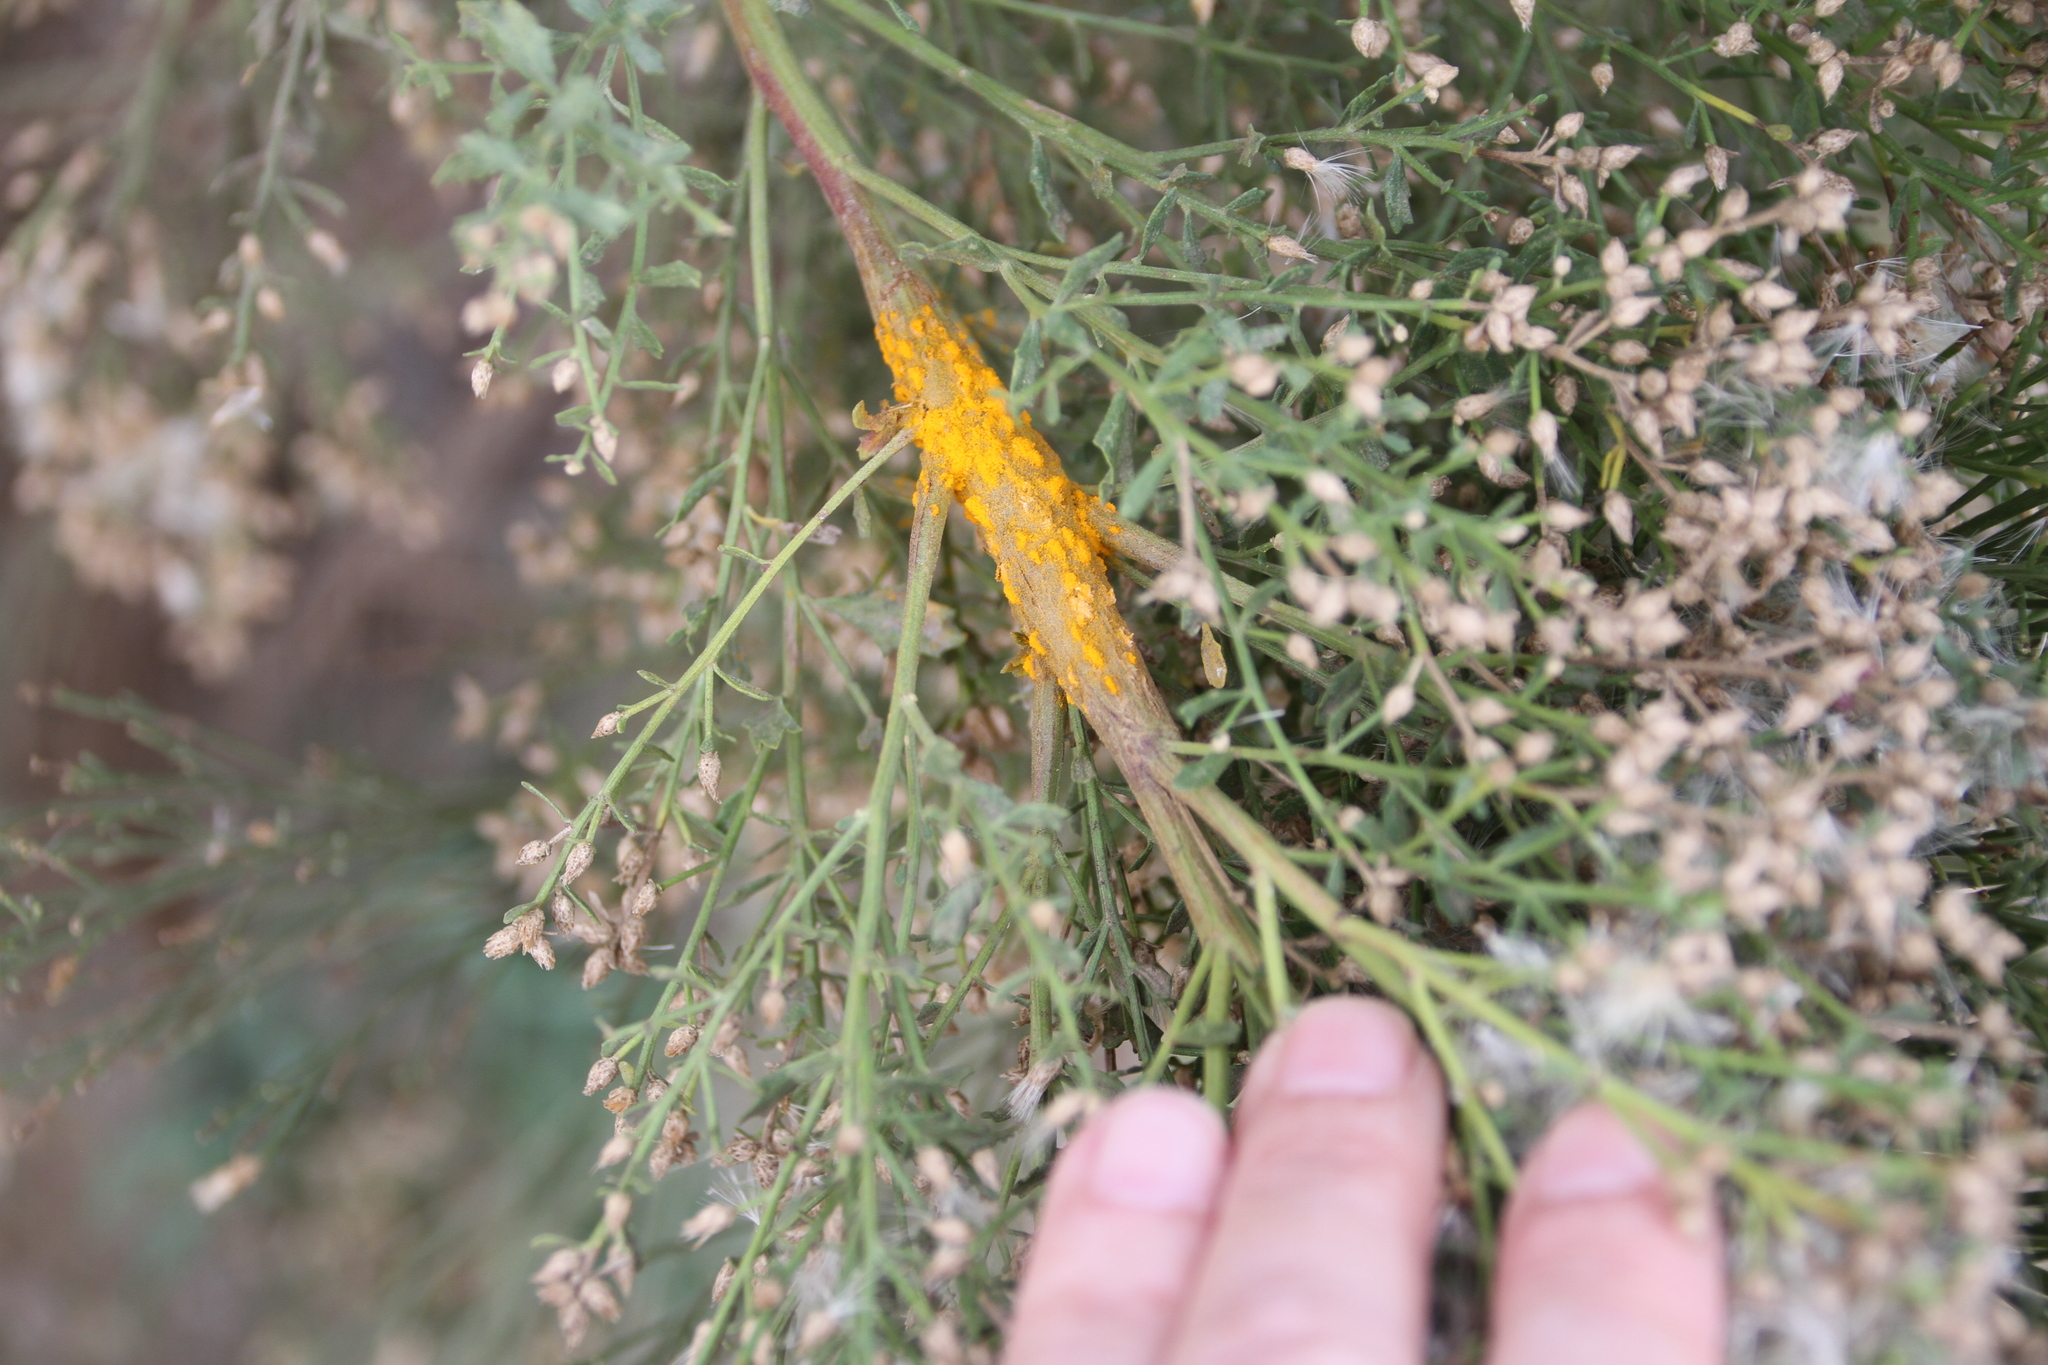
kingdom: Fungi
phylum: Basidiomycota
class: Pucciniomycetes
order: Pucciniales
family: Pucciniaceae
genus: Eriosporangium
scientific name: Eriosporangium evadens
